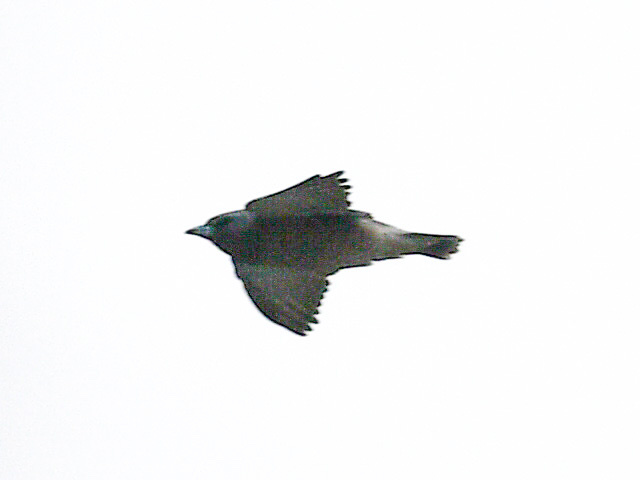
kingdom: Animalia
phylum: Chordata
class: Aves
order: Passeriformes
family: Artamidae
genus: Artamus
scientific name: Artamus fuscus
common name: Ashy woodswallow
